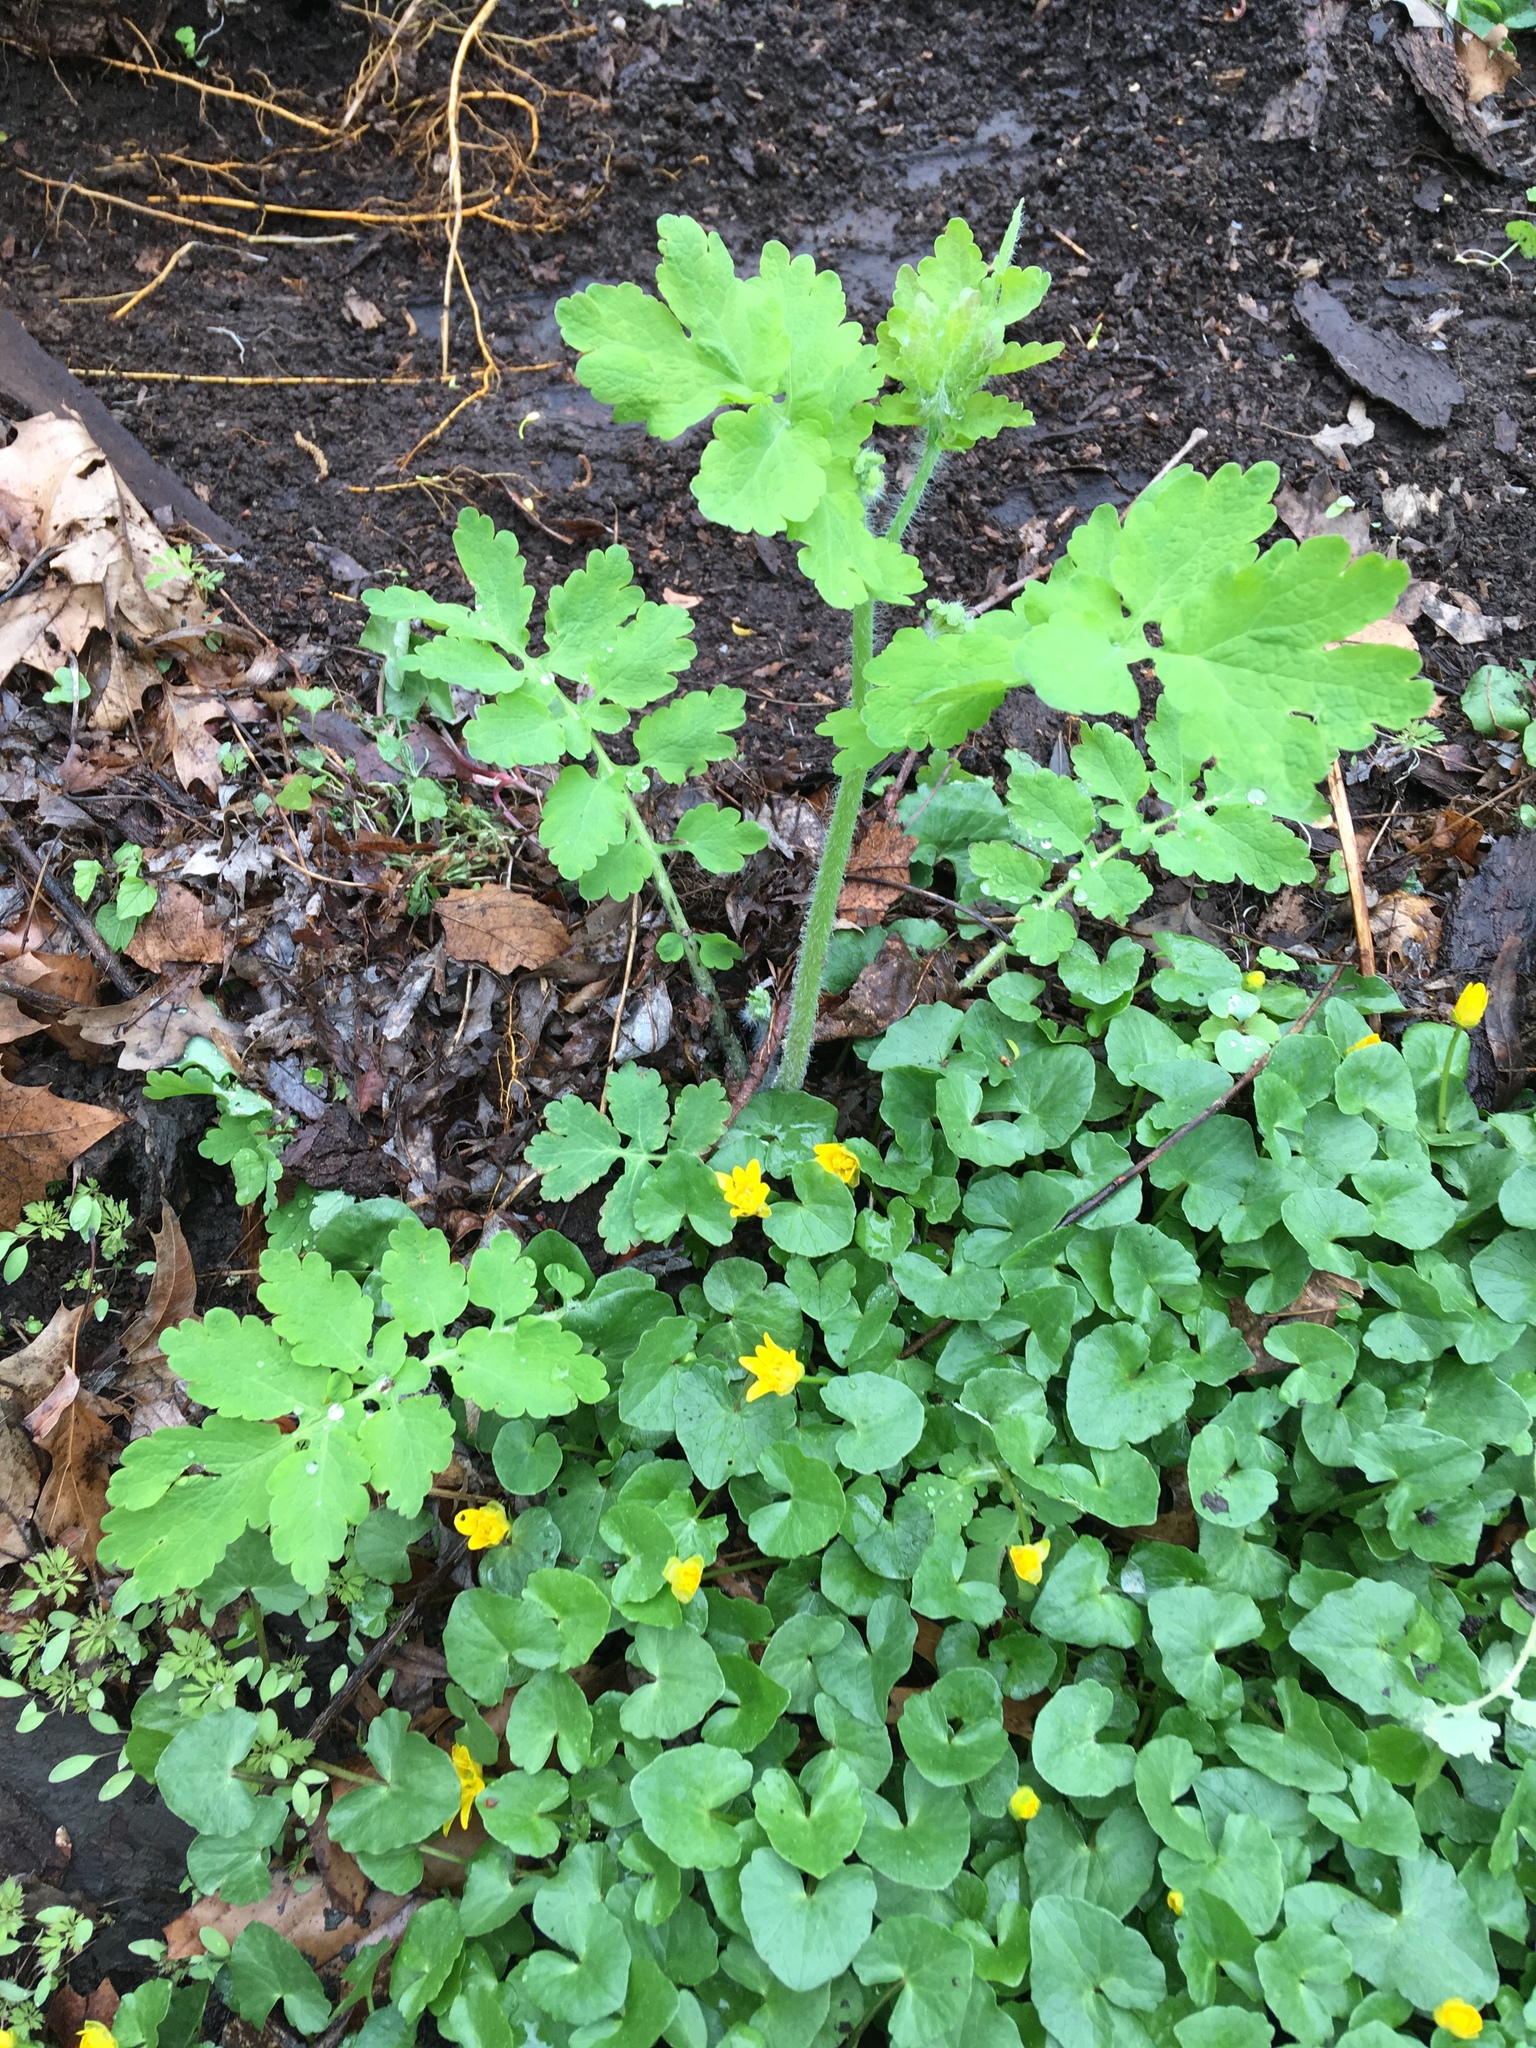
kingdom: Plantae
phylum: Tracheophyta
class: Magnoliopsida
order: Ranunculales
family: Papaveraceae
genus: Chelidonium
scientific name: Chelidonium majus
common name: Greater celandine
